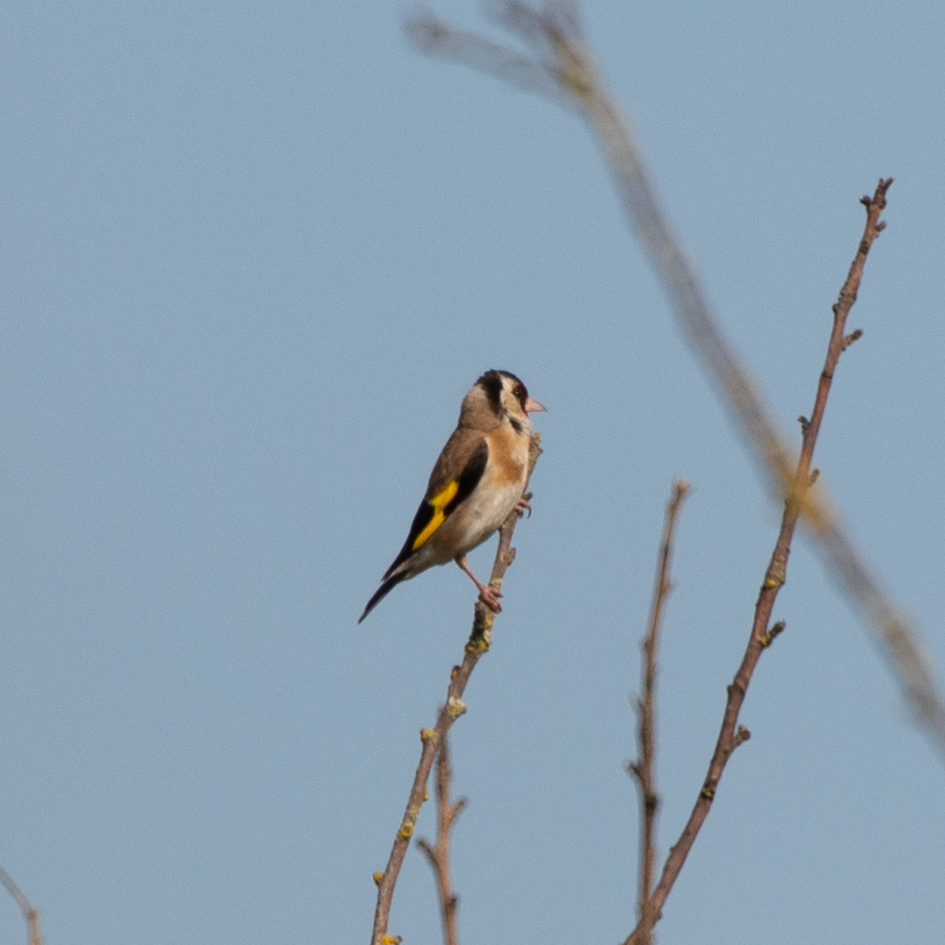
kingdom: Animalia
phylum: Chordata
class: Aves
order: Passeriformes
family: Fringillidae
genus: Carduelis
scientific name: Carduelis carduelis
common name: European goldfinch
